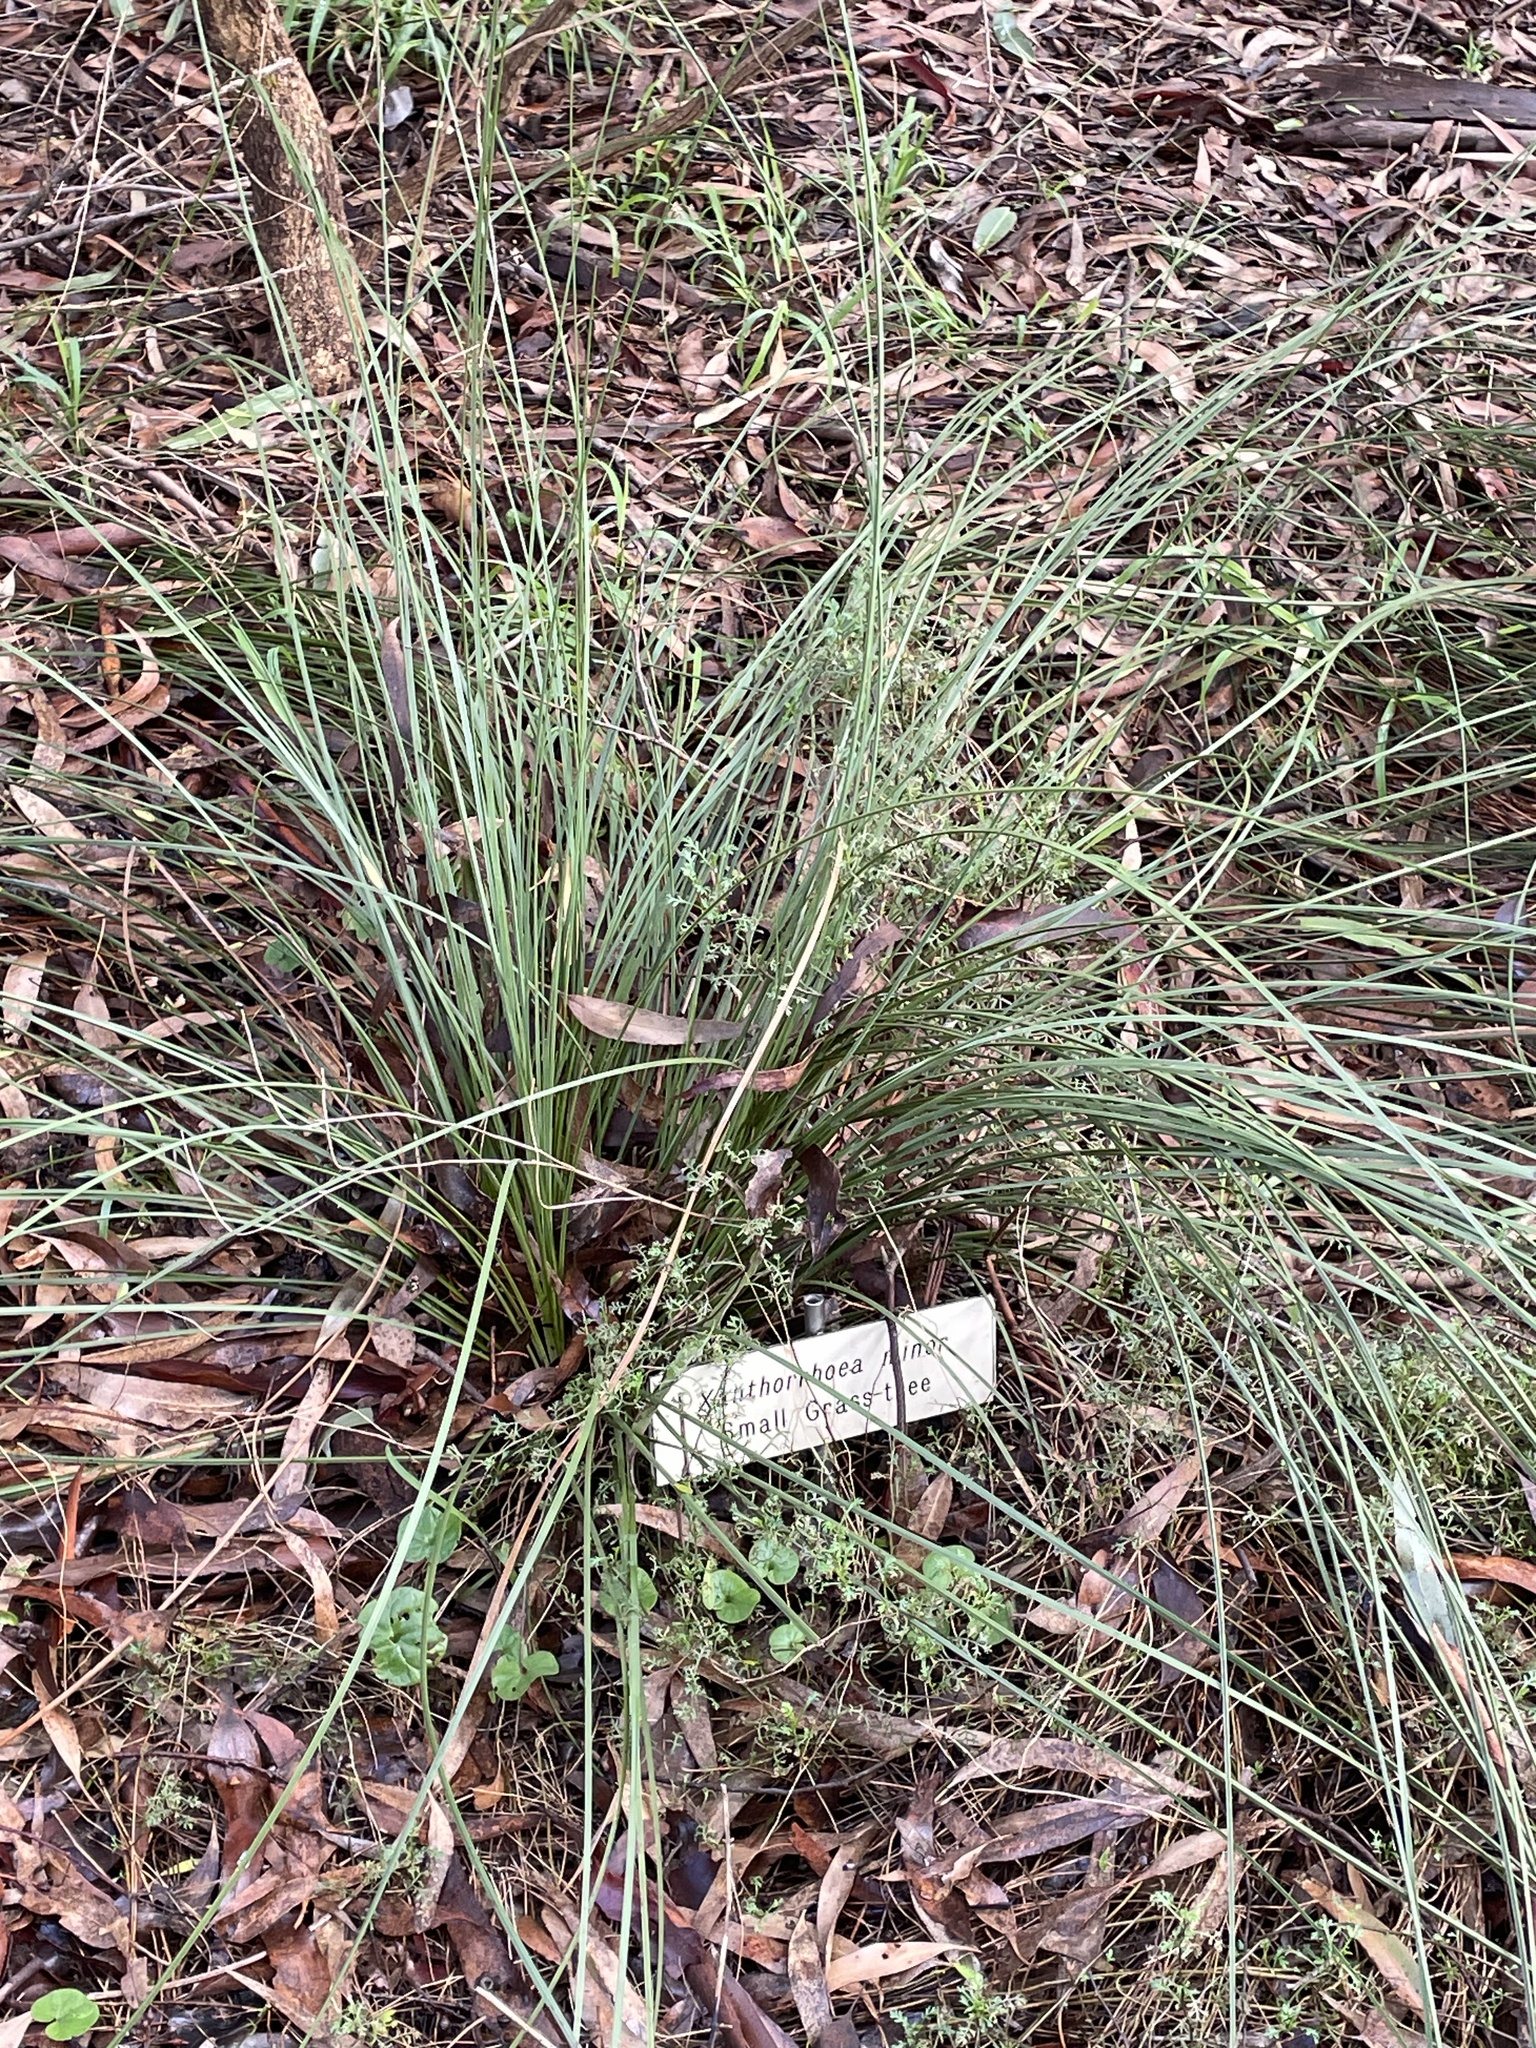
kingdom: Plantae
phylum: Tracheophyta
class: Liliopsida
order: Asparagales
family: Asphodelaceae
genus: Xanthorrhoea
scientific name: Xanthorrhoea minor
